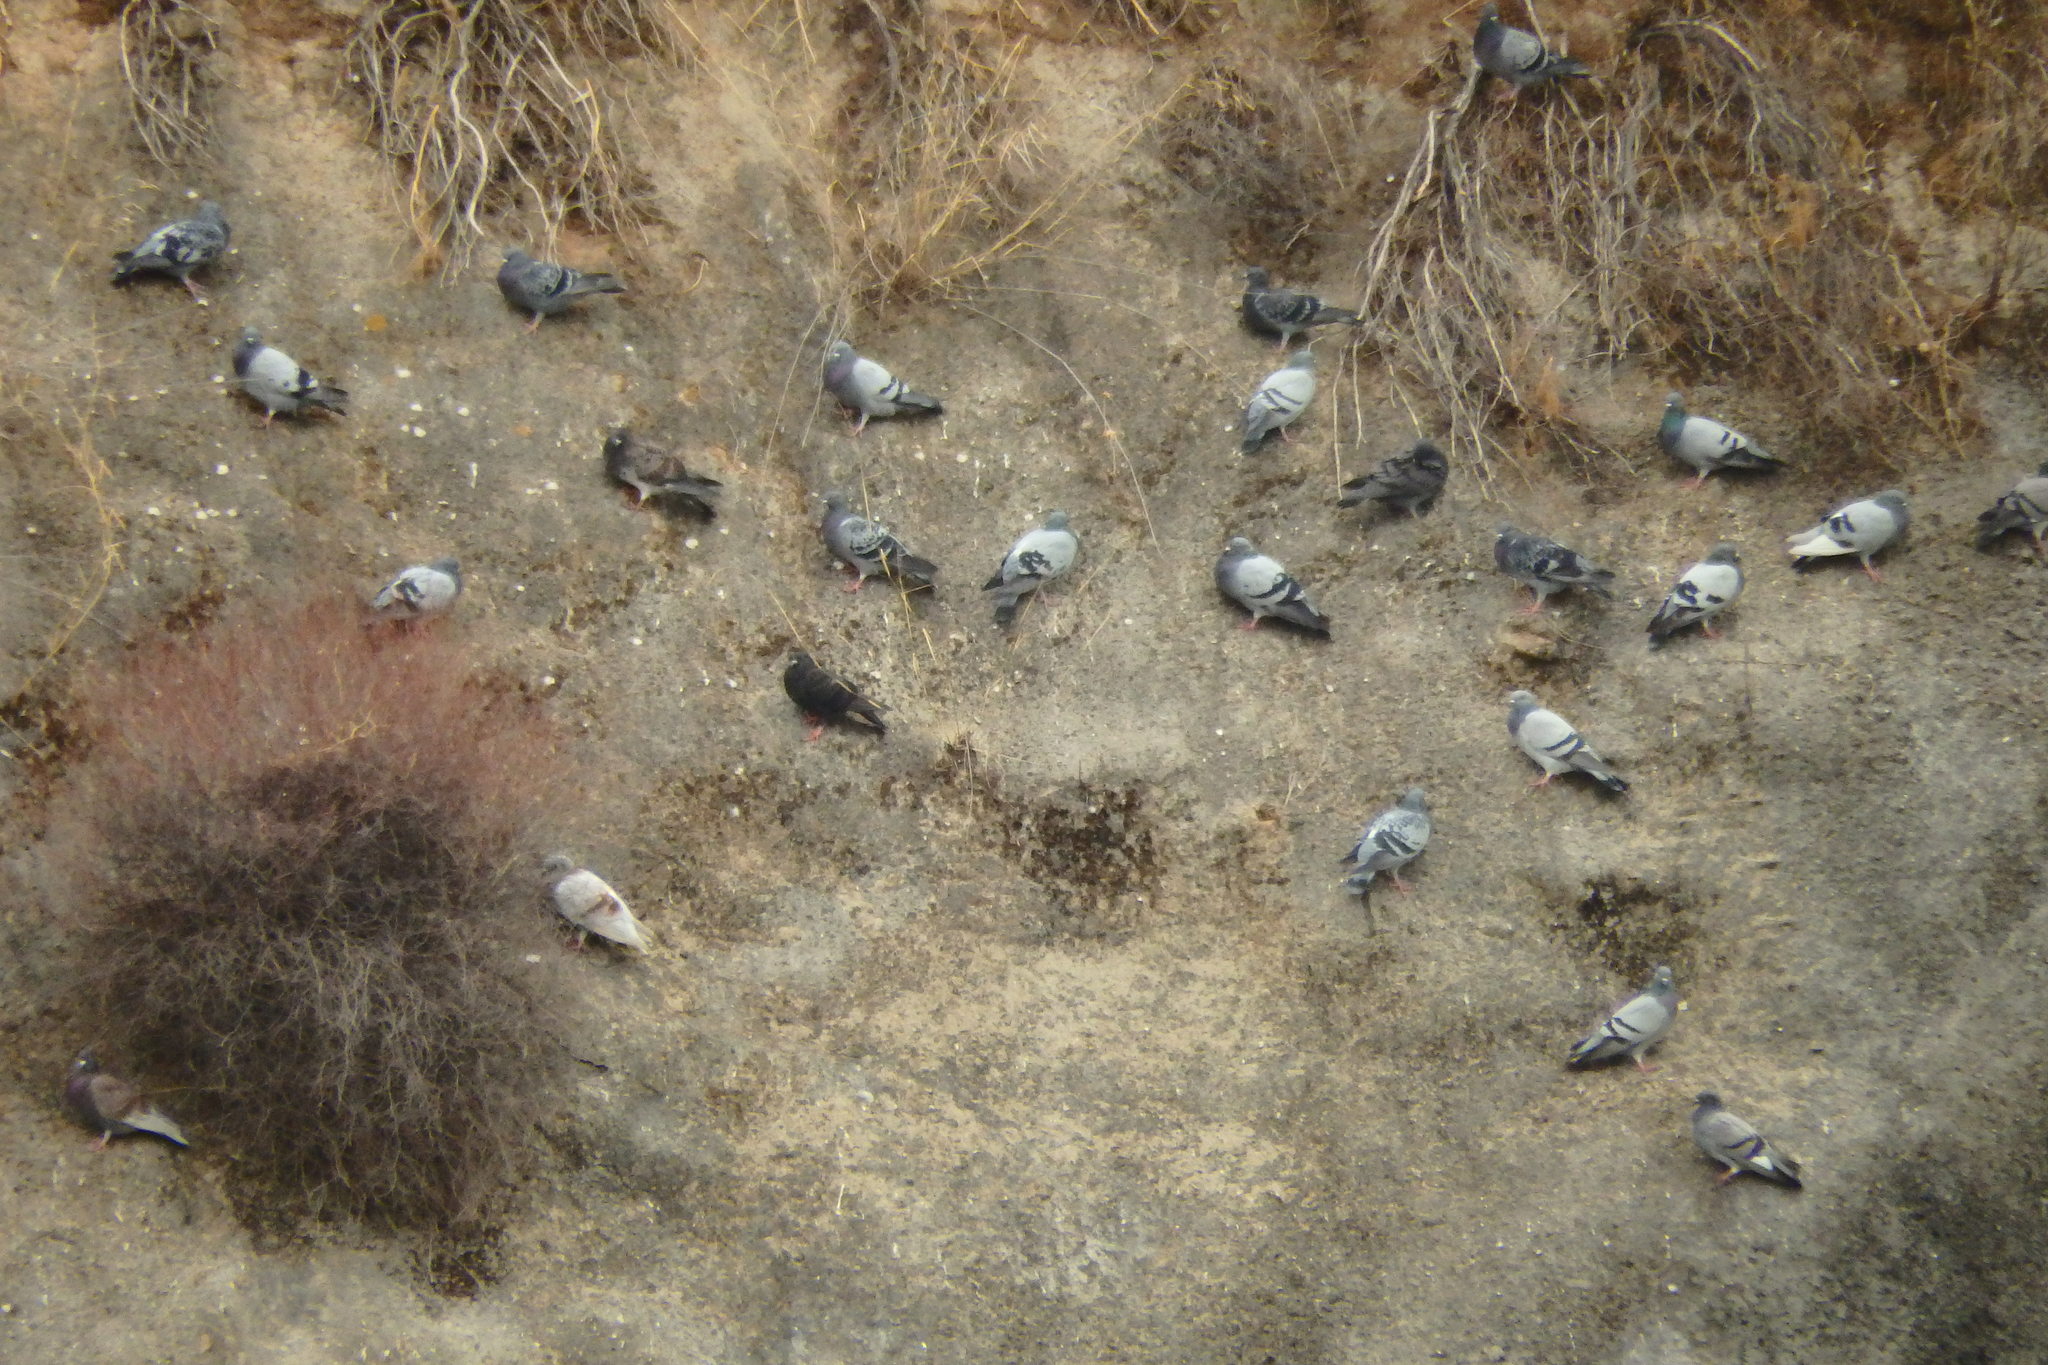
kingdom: Animalia
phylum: Chordata
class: Aves
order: Columbiformes
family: Columbidae
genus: Columba
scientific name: Columba livia
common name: Rock pigeon
